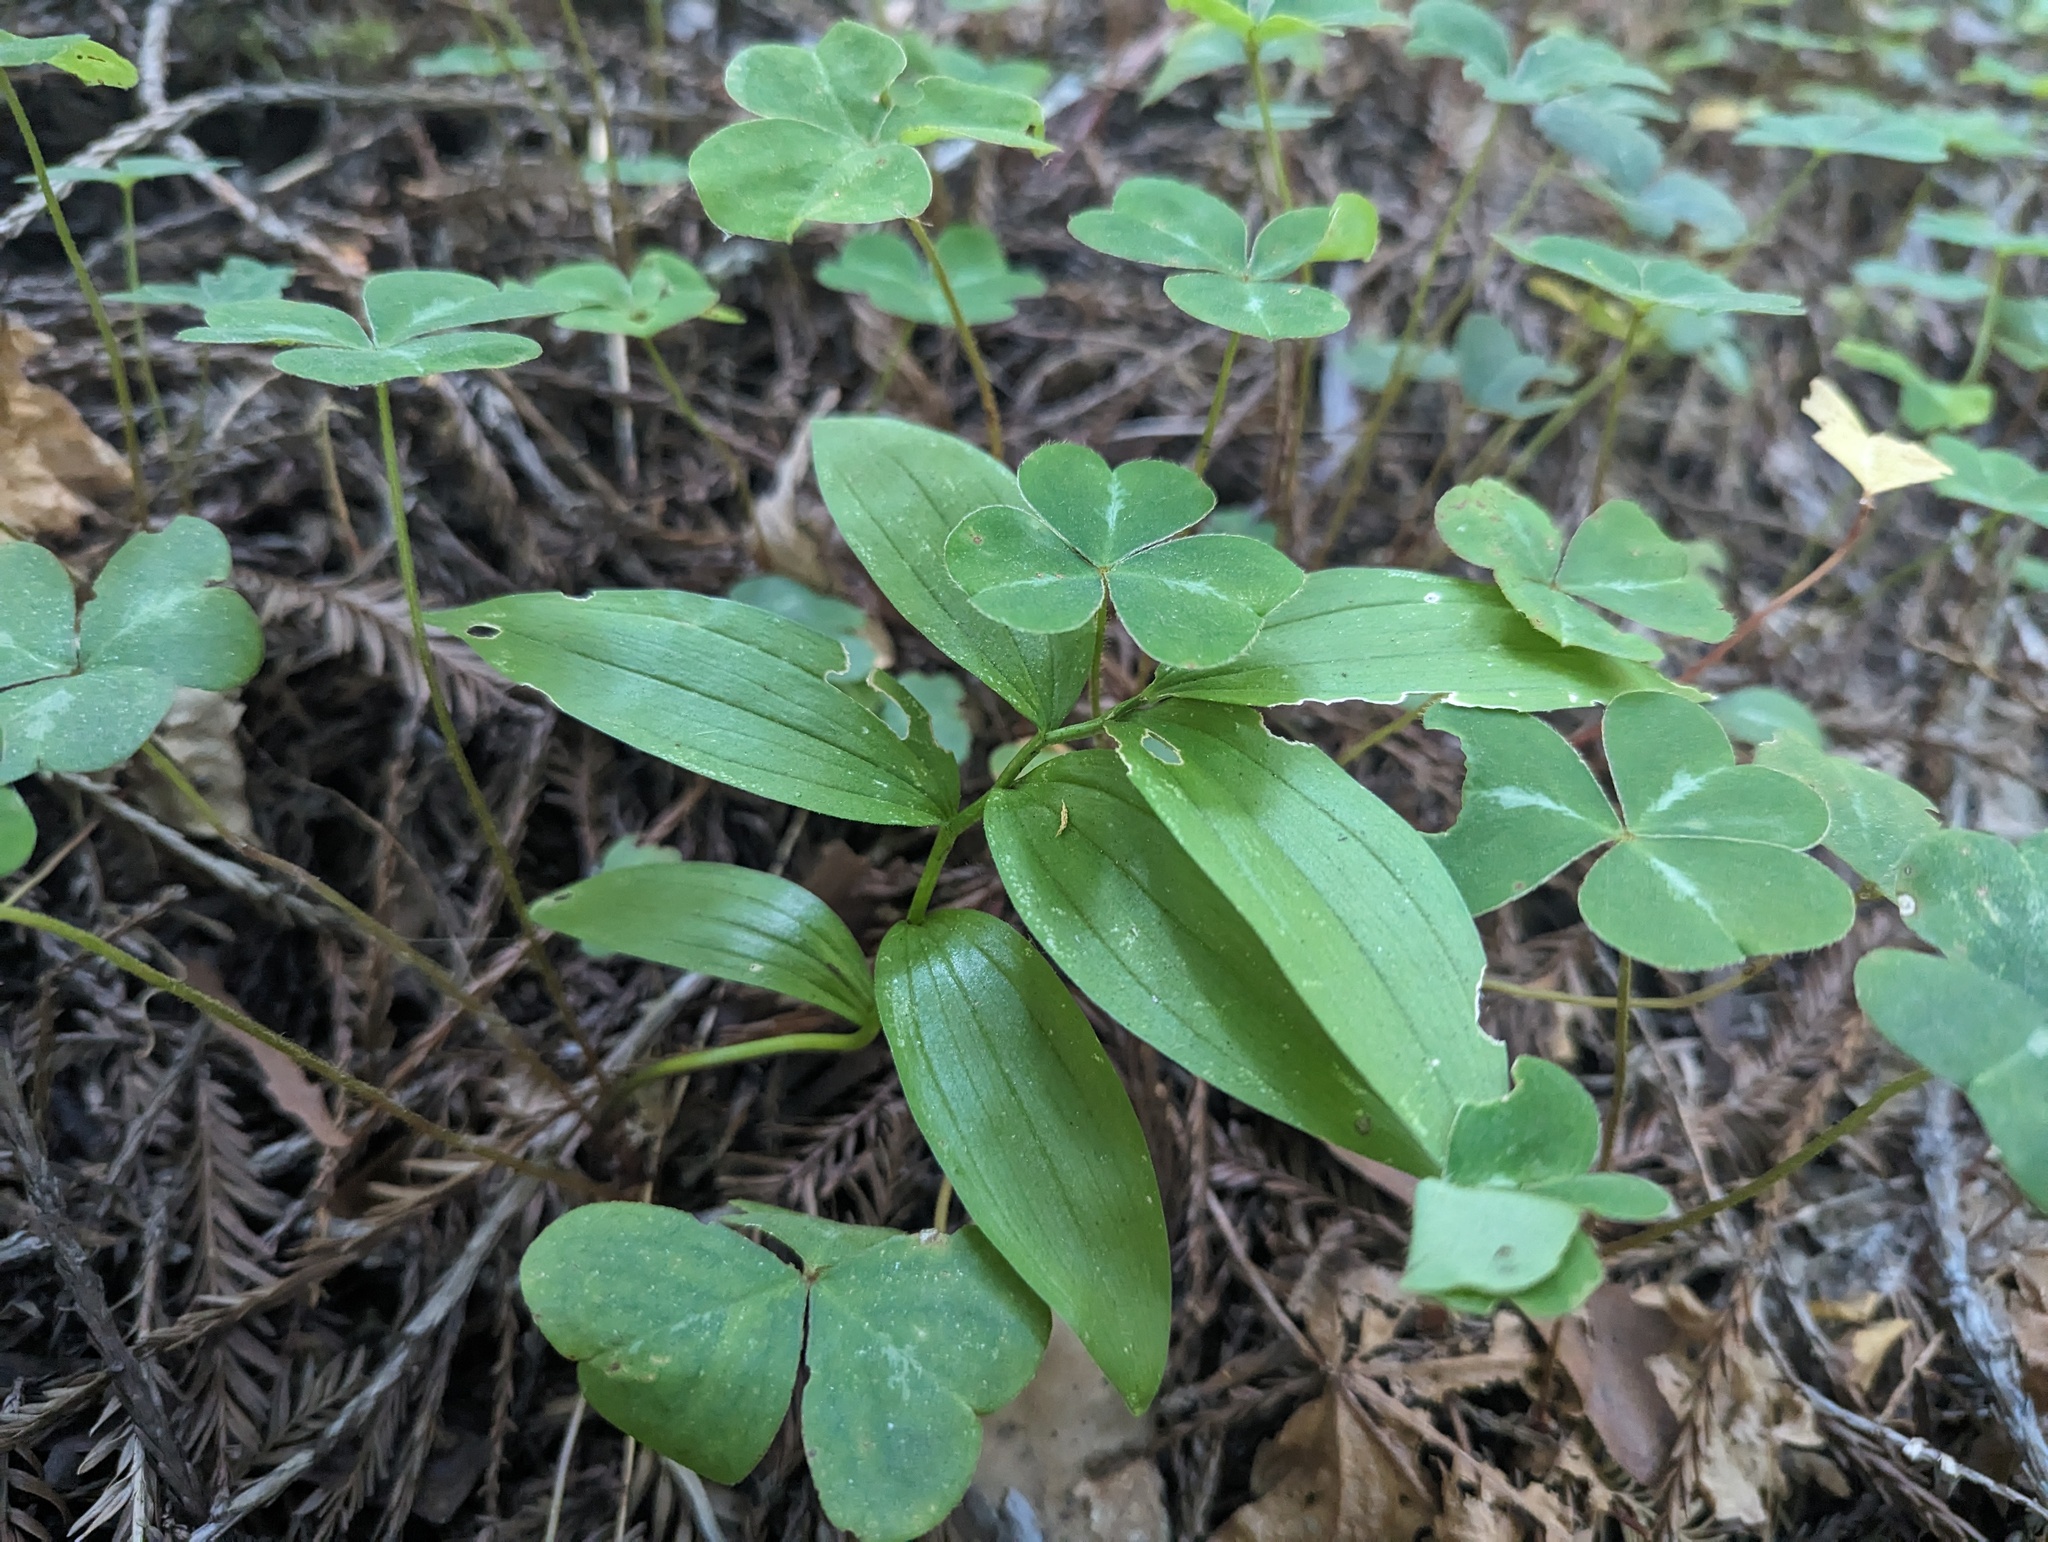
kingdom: Plantae
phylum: Tracheophyta
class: Liliopsida
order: Asparagales
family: Asparagaceae
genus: Maianthemum
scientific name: Maianthemum stellatum
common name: Little false solomon's seal
